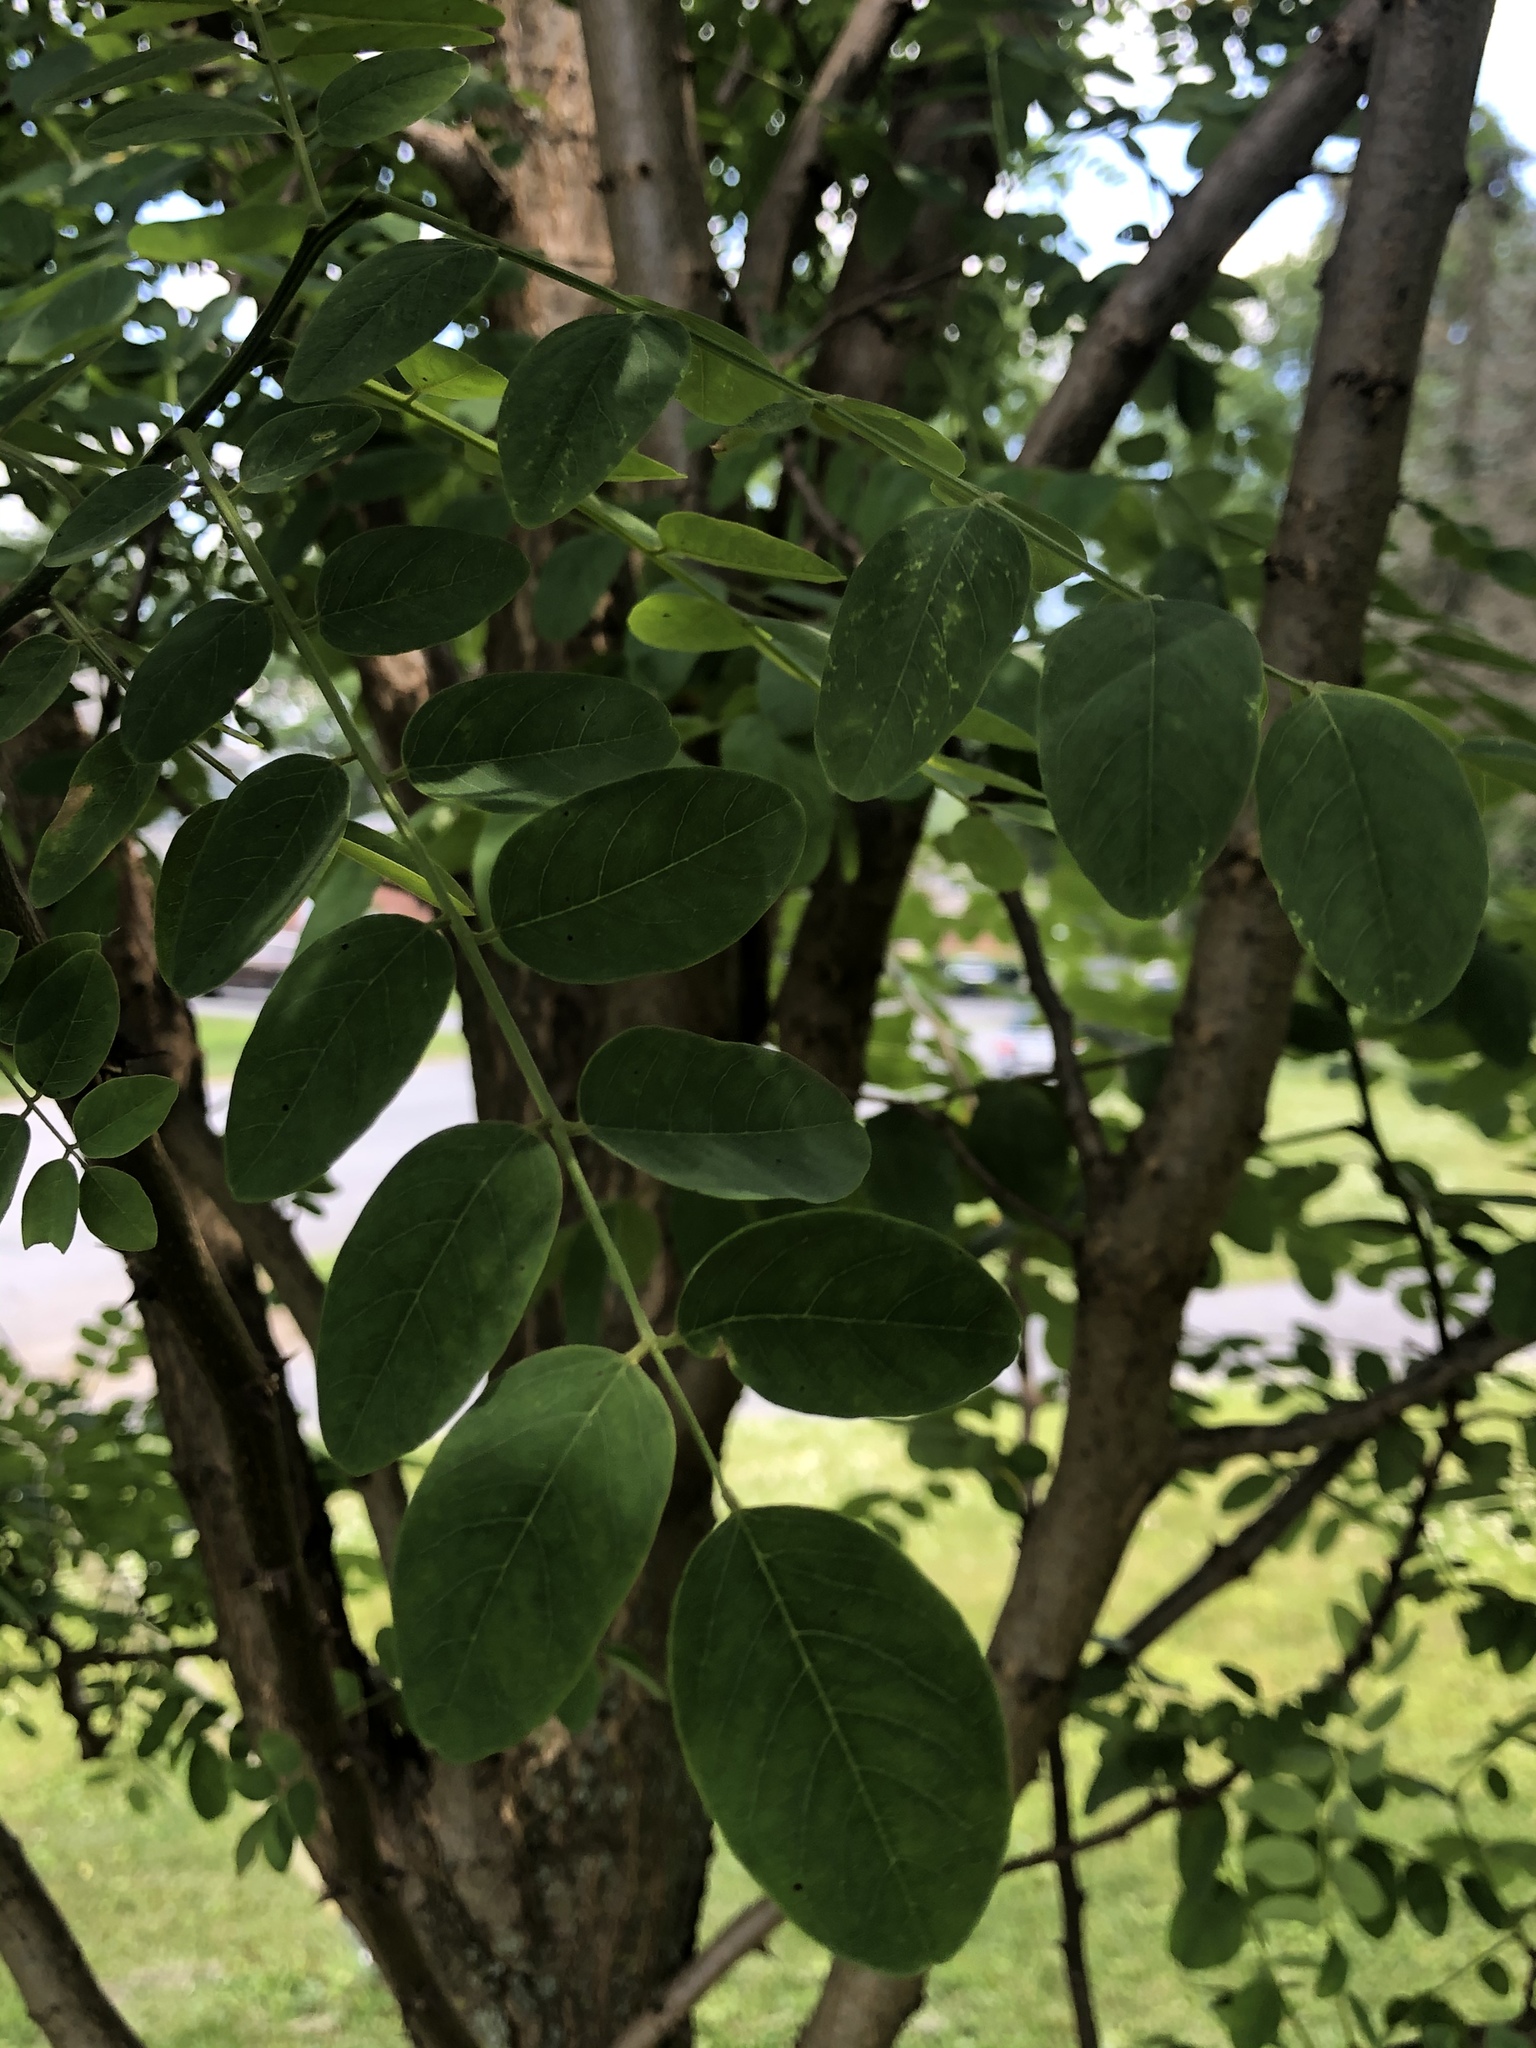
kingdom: Plantae
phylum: Tracheophyta
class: Magnoliopsida
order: Fabales
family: Fabaceae
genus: Robinia
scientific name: Robinia pseudoacacia
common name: Black locust
